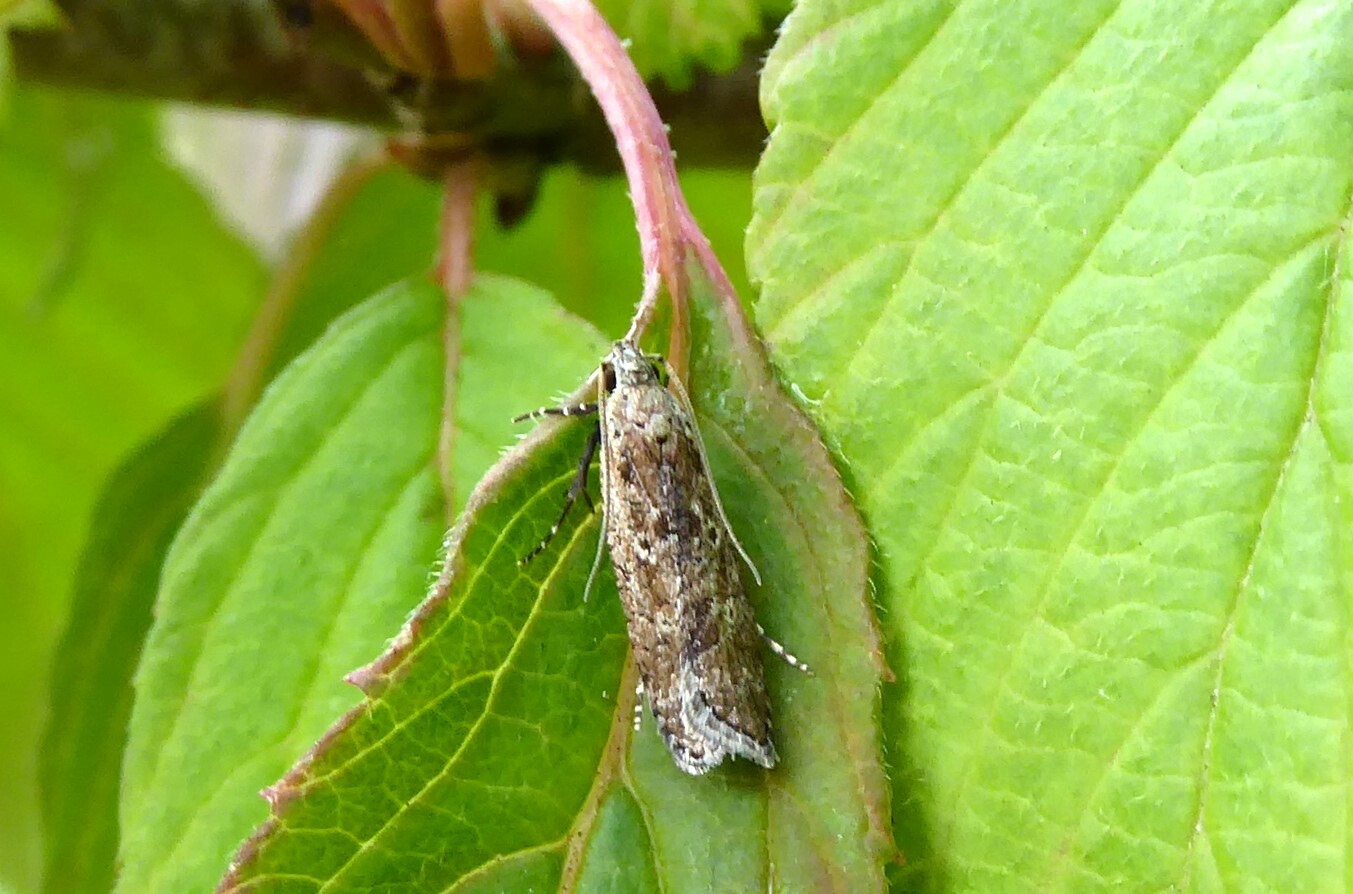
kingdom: Animalia
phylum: Arthropoda
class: Insecta
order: Lepidoptera
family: Gelechiidae
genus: Anisoplaca
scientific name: Anisoplaca achyrota
